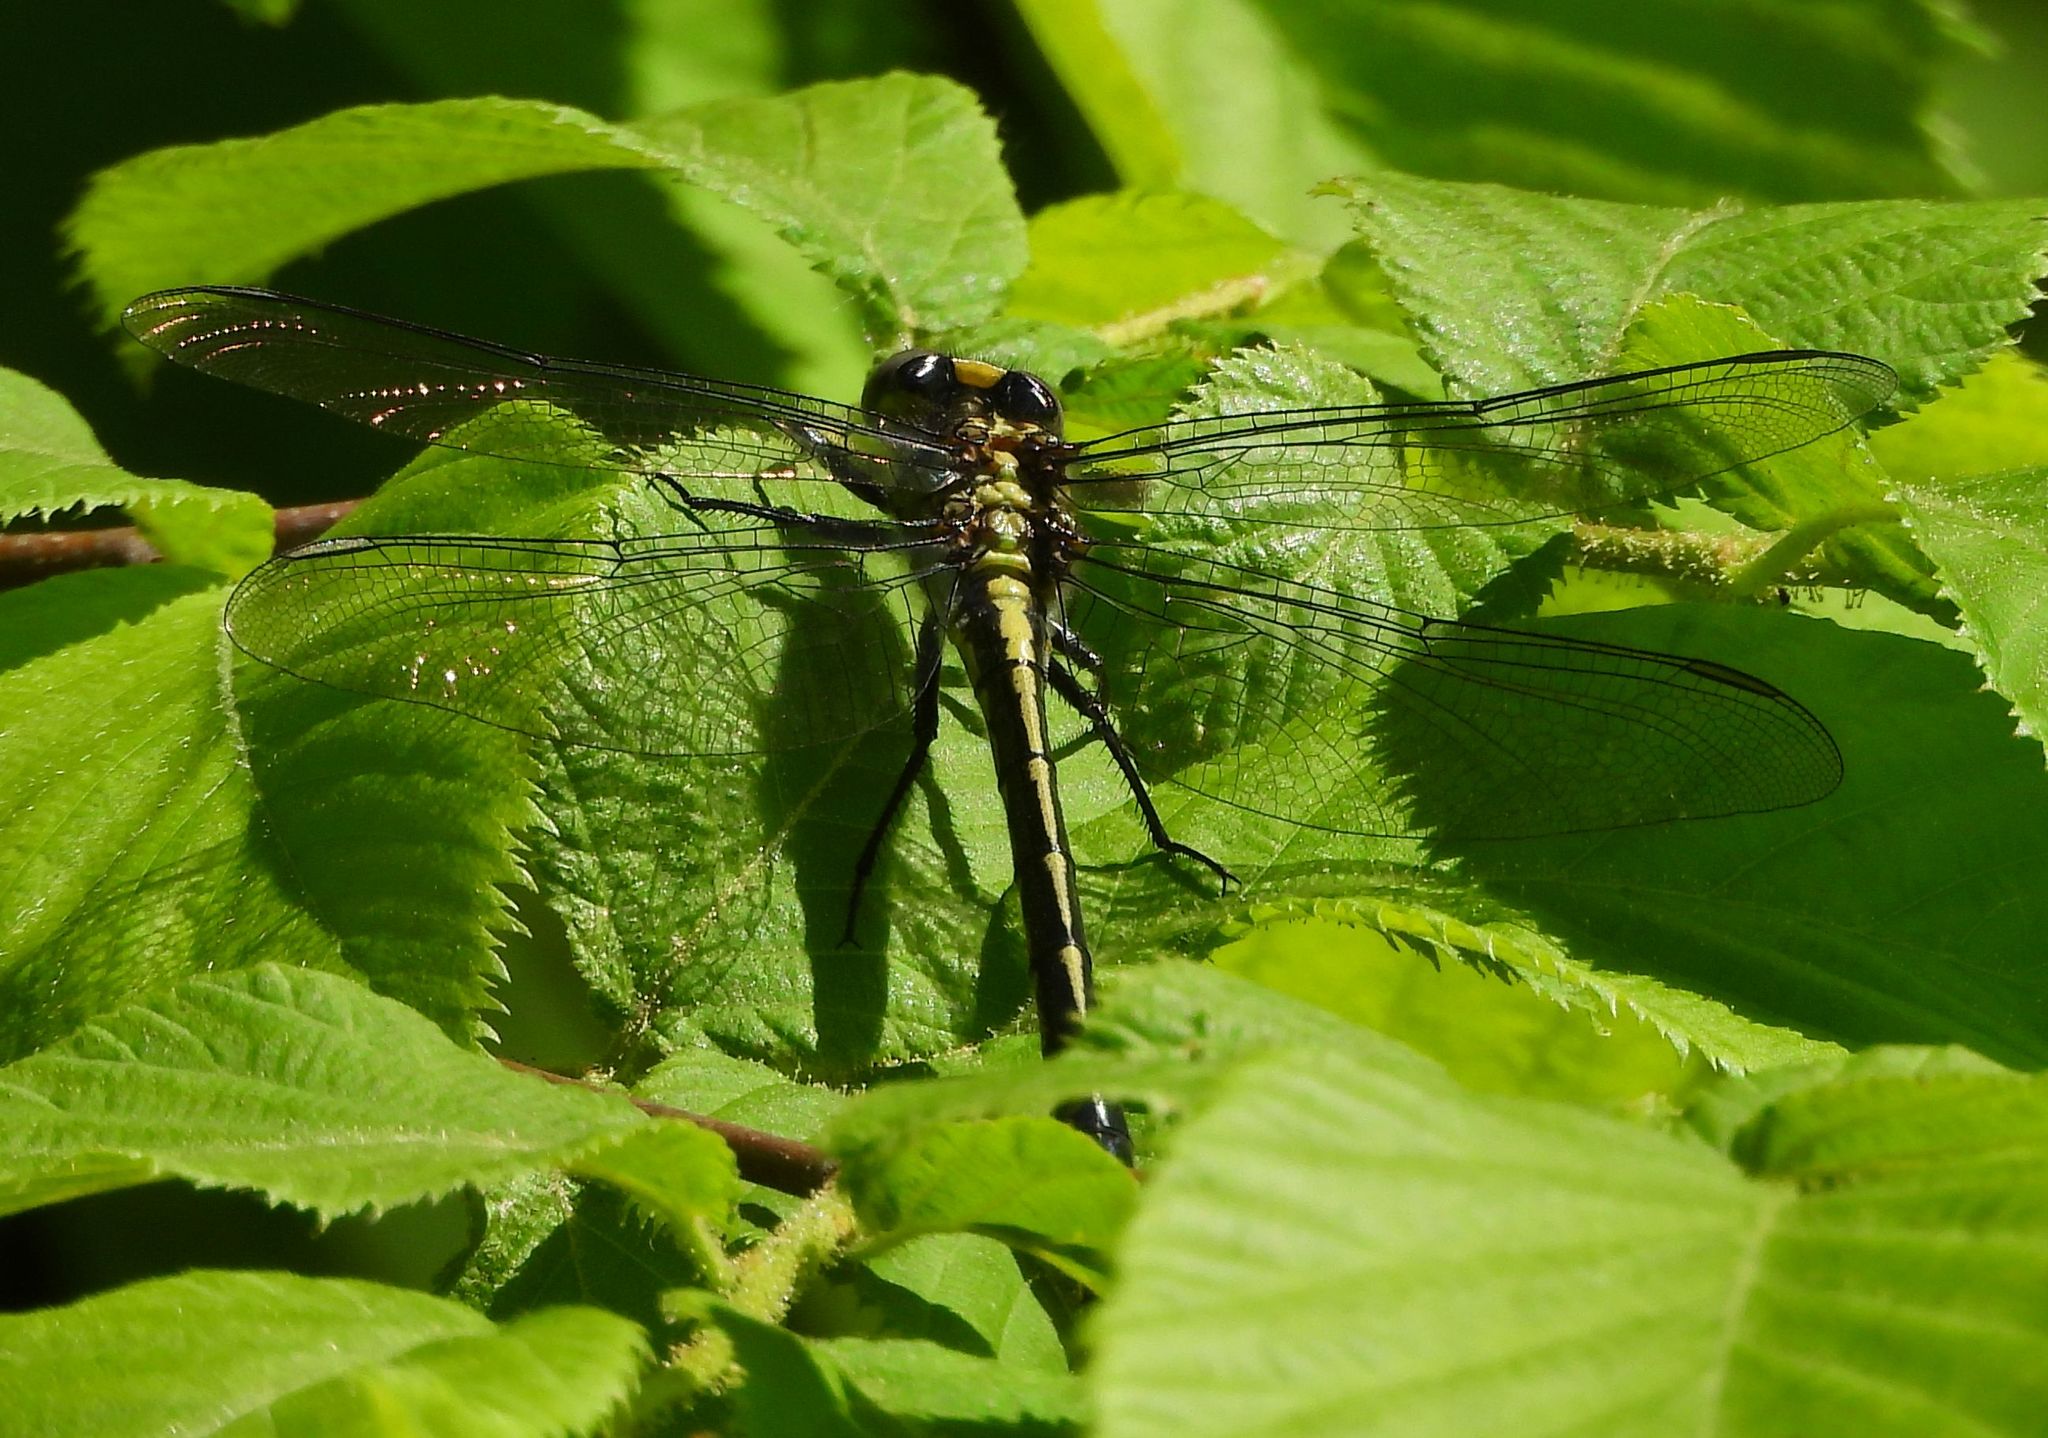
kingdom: Animalia
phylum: Arthropoda
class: Insecta
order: Odonata
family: Gomphidae
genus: Arigomphus
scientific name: Arigomphus furcifer
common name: Lilypad clubtail
